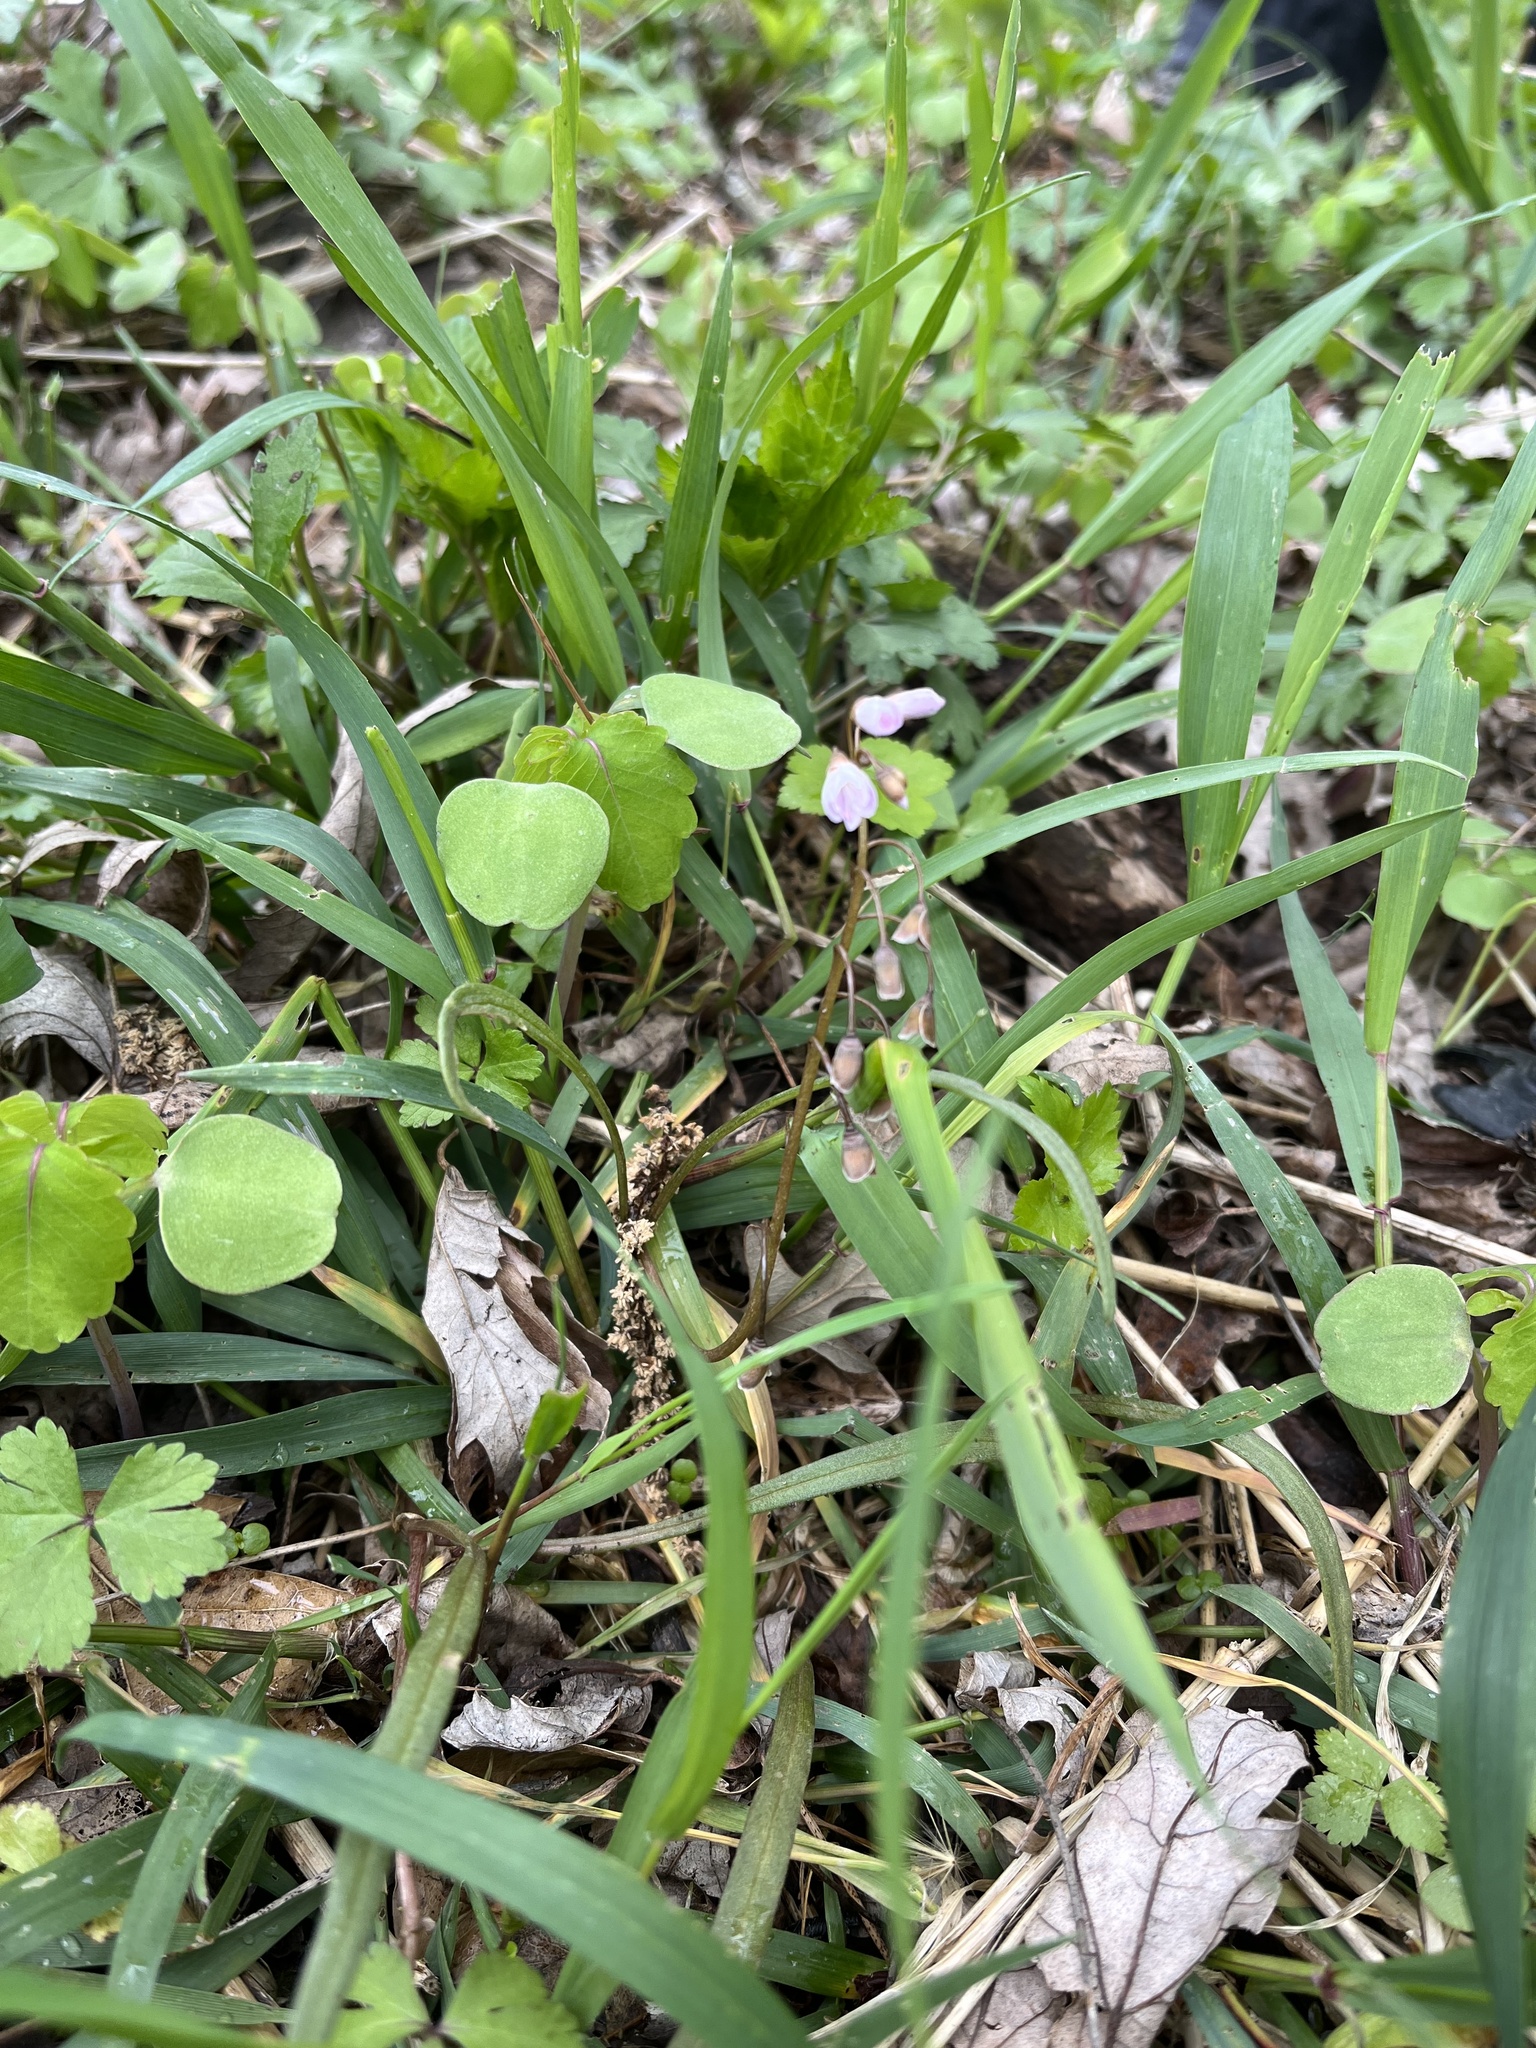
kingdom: Plantae
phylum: Tracheophyta
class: Magnoliopsida
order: Caryophyllales
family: Montiaceae
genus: Claytonia
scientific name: Claytonia virginica
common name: Virginia springbeauty
